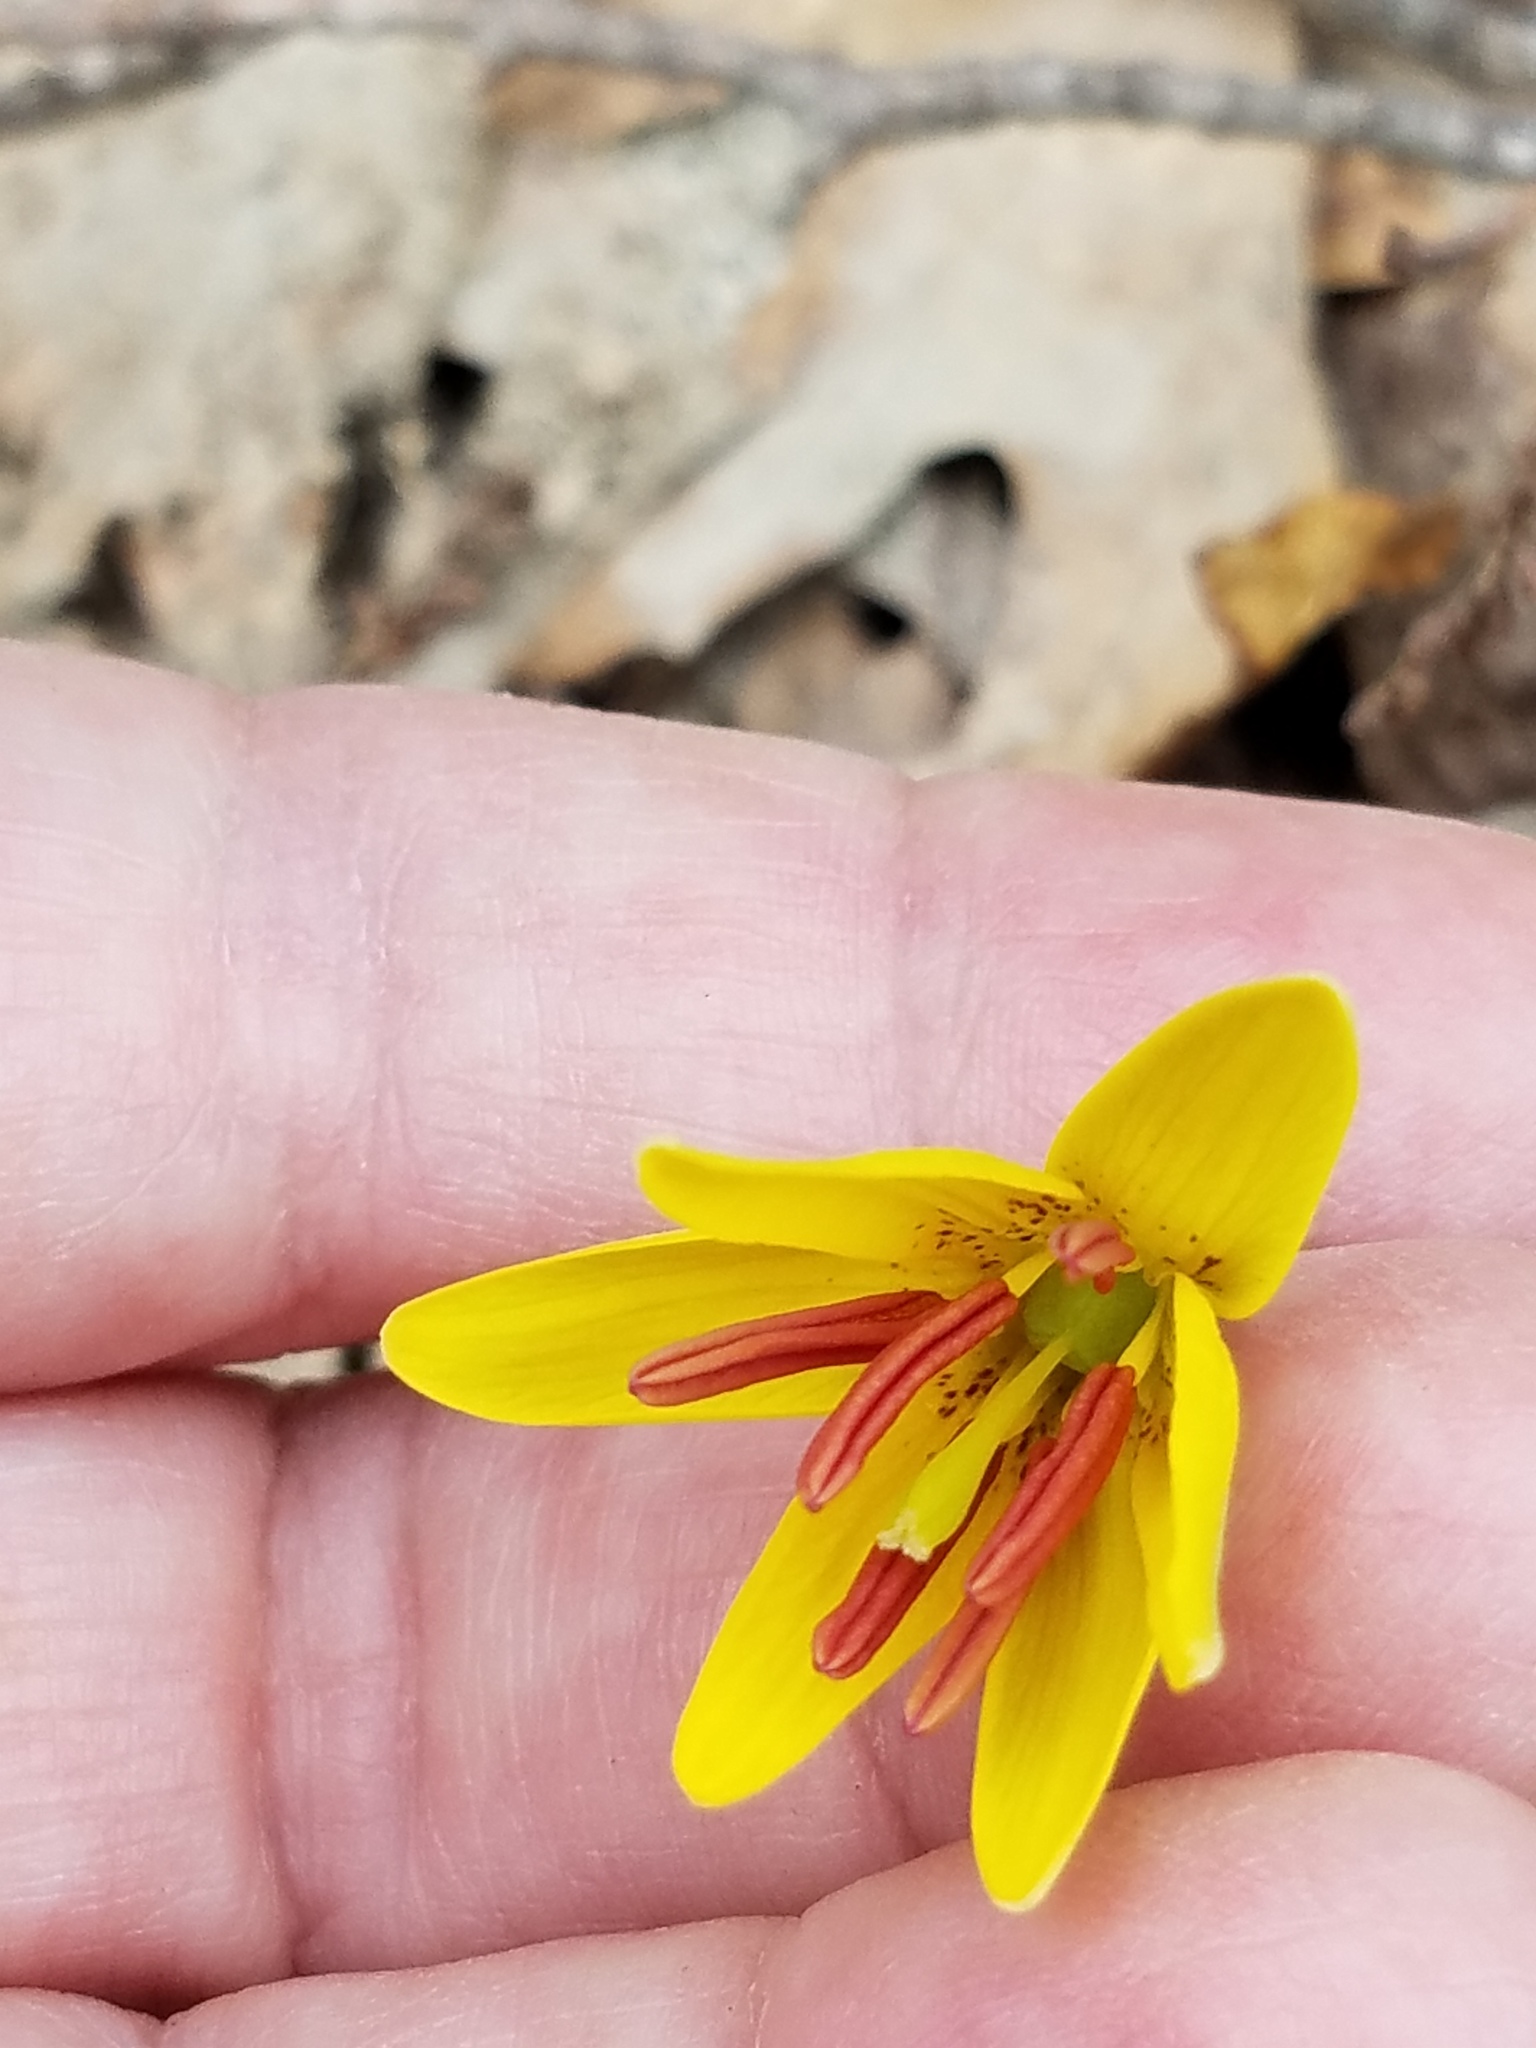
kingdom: Plantae
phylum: Tracheophyta
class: Liliopsida
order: Liliales
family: Liliaceae
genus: Erythronium
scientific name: Erythronium americanum
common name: Yellow adder's-tongue
